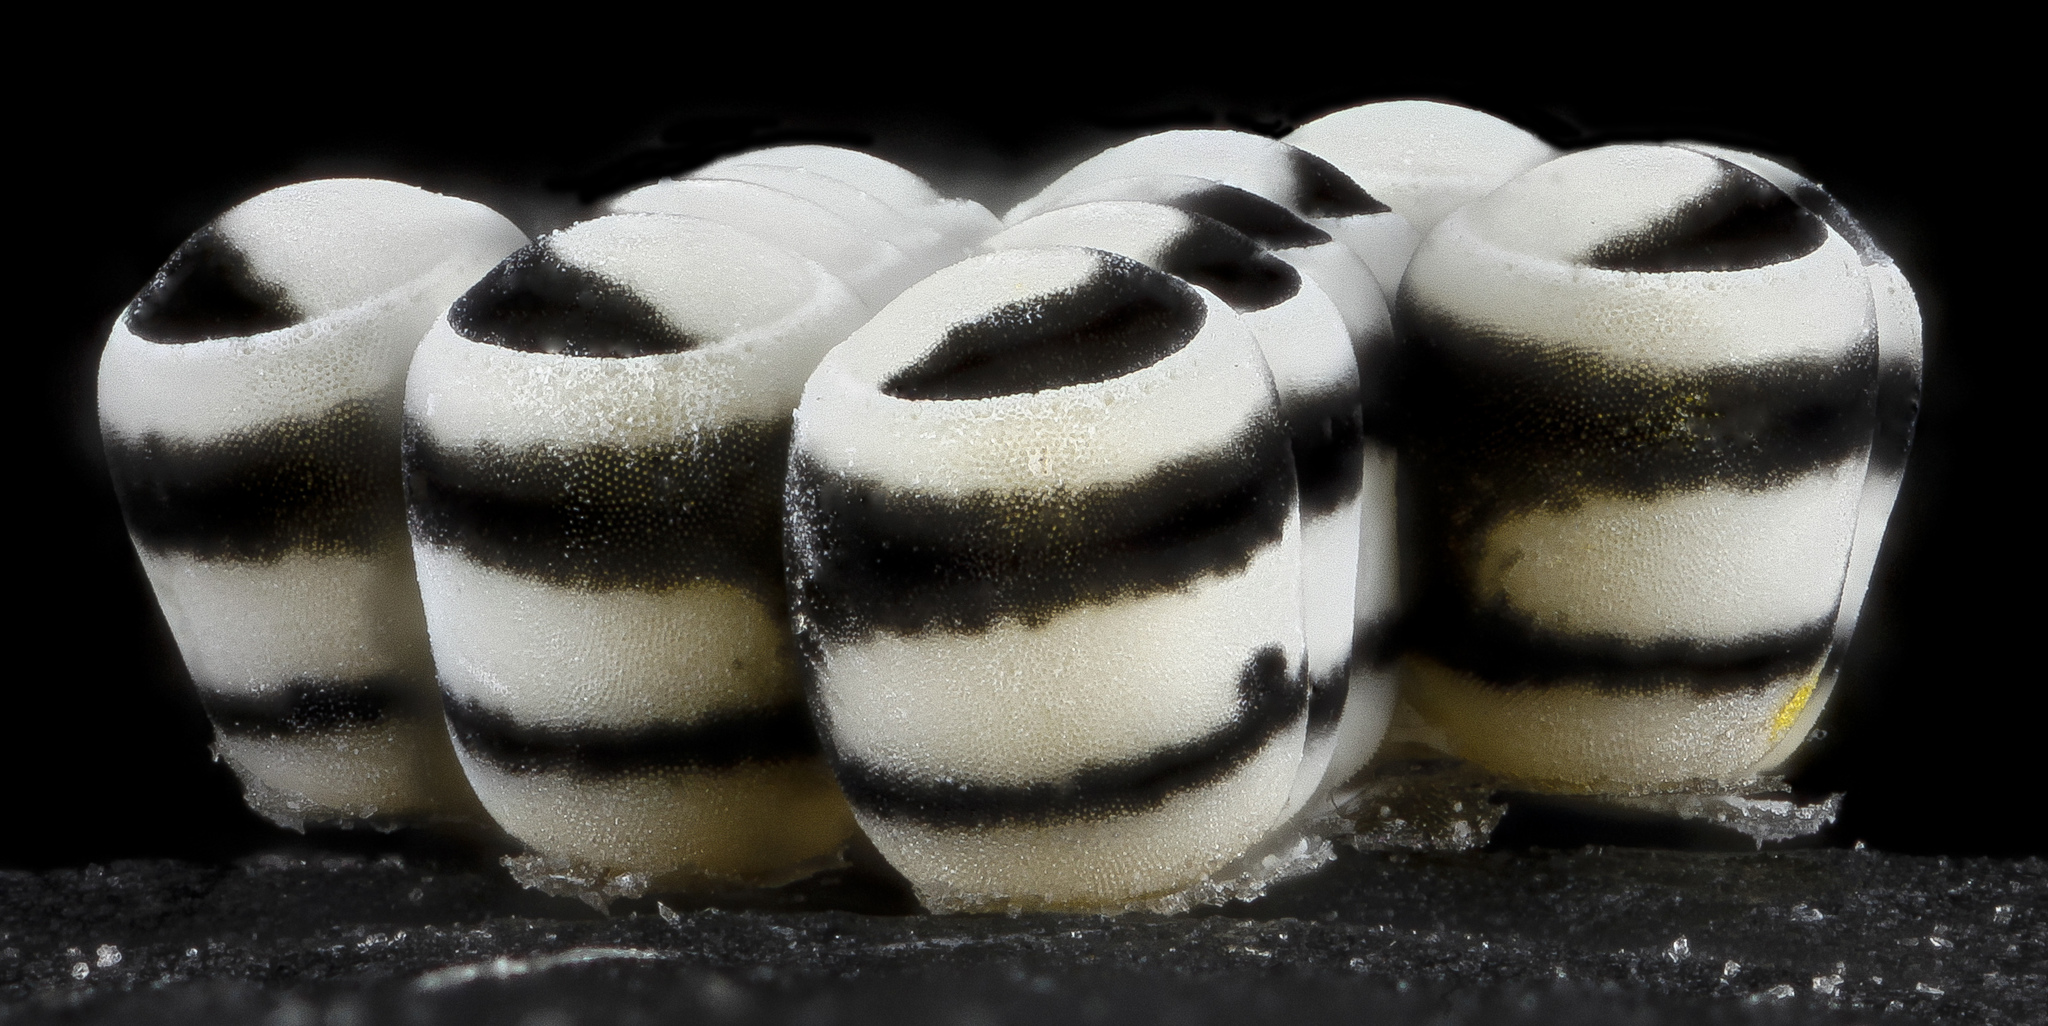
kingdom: Animalia
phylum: Arthropoda
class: Insecta
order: Hemiptera
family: Pentatomidae
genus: Murgantia
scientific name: Murgantia histrionica
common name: Harlequin bug
